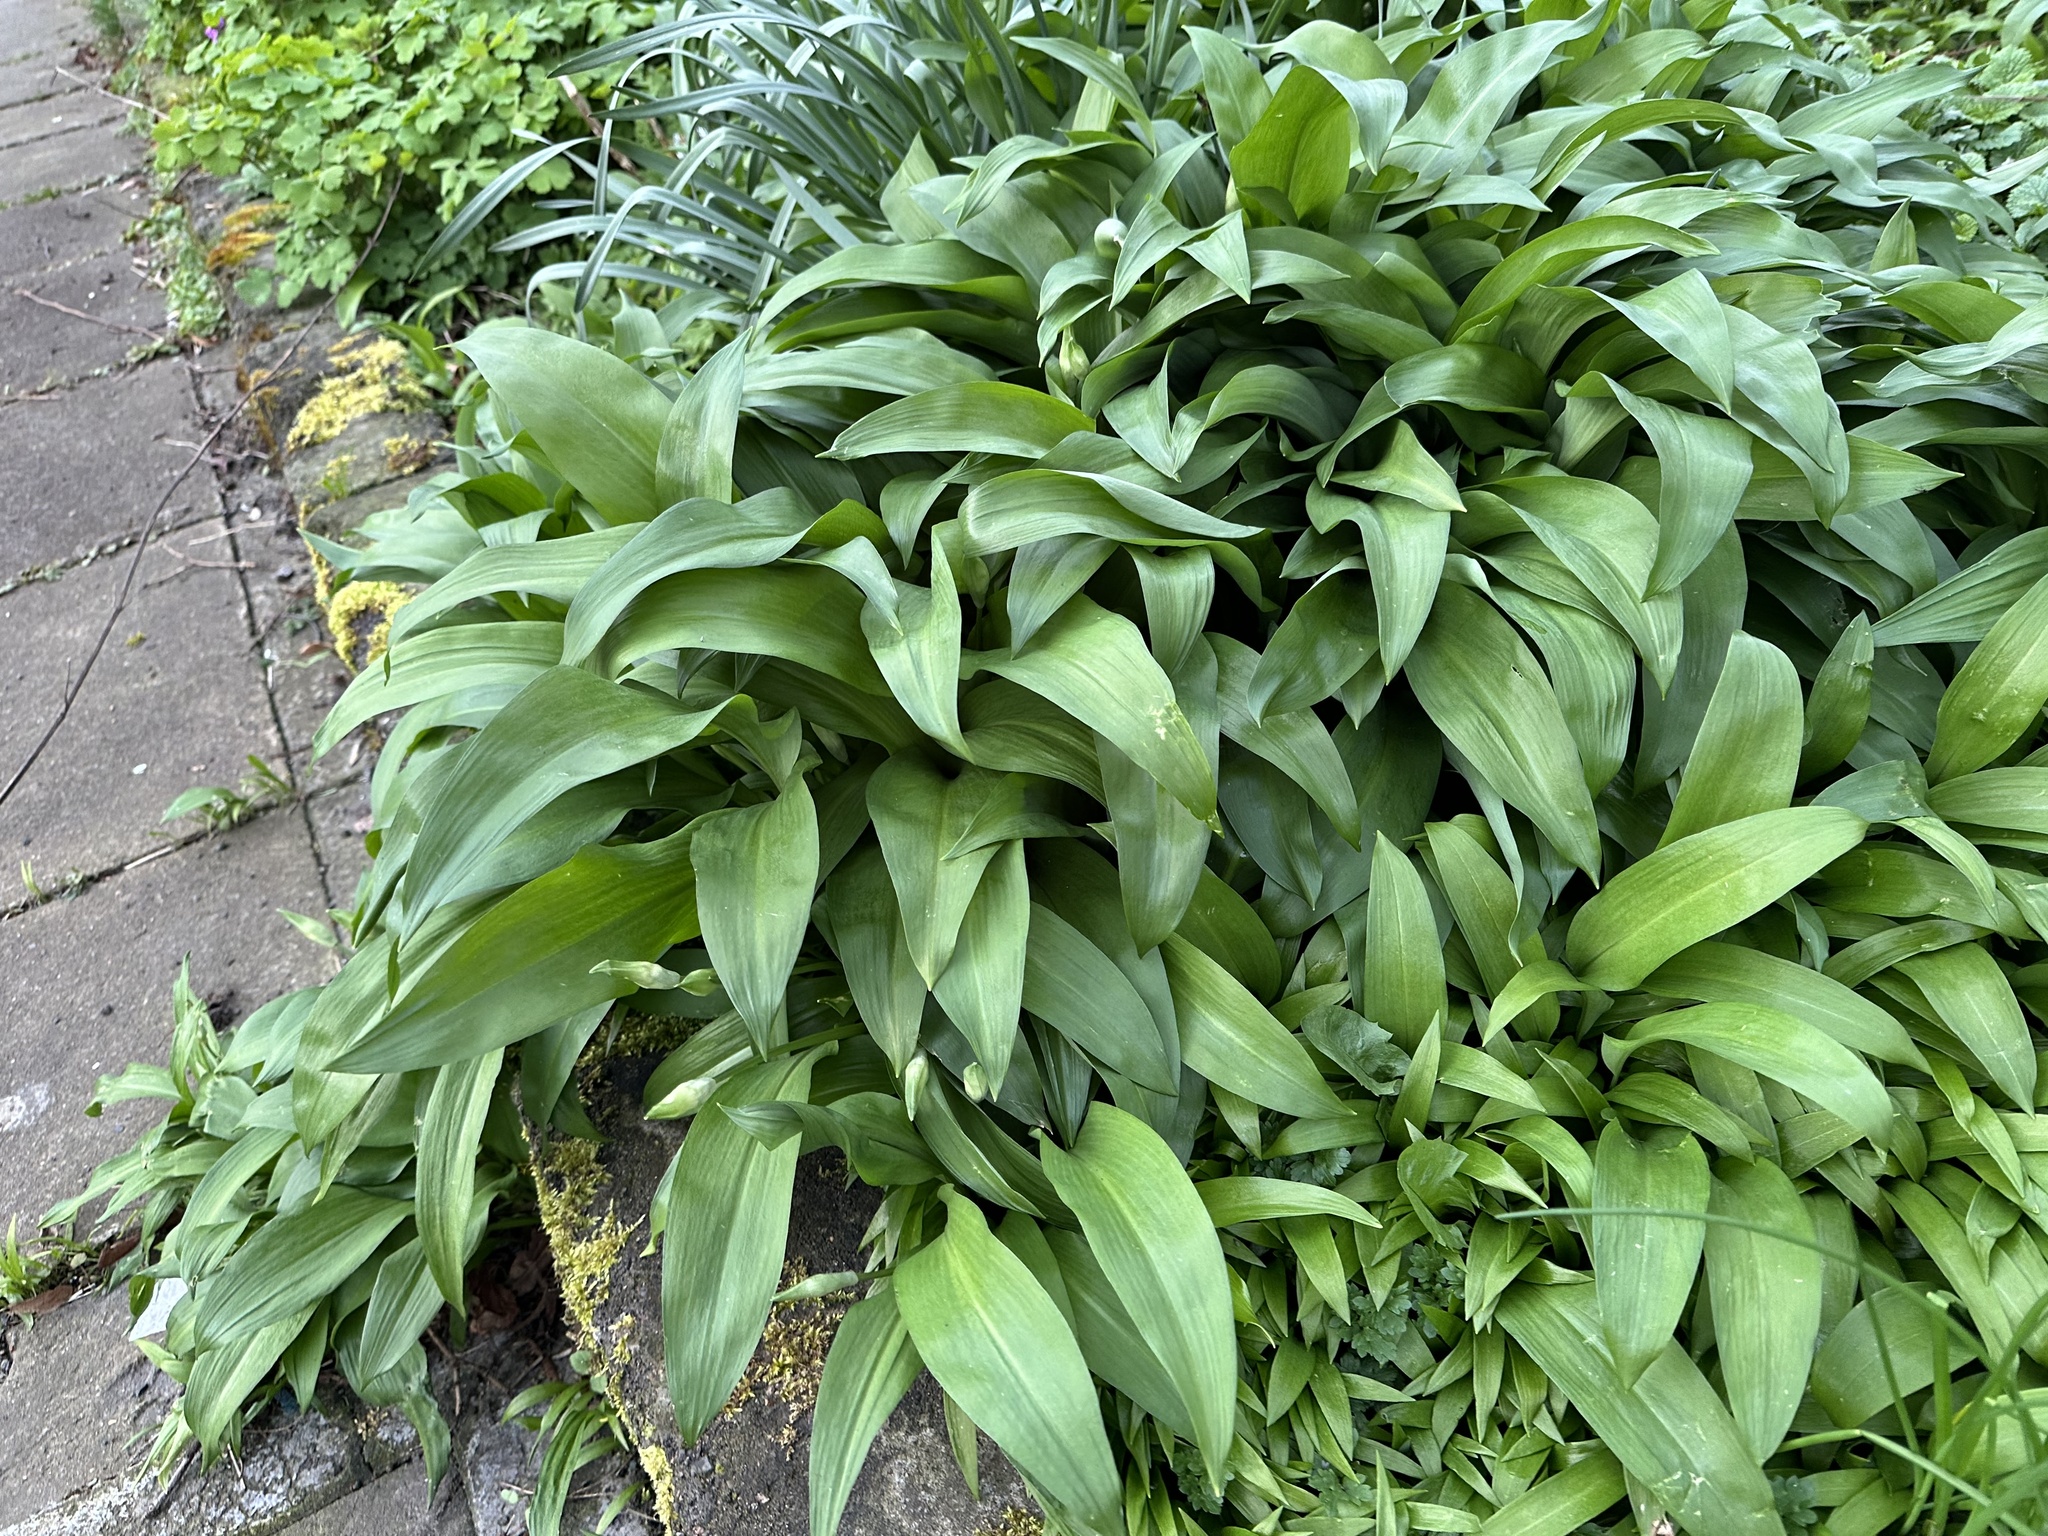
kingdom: Plantae
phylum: Tracheophyta
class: Liliopsida
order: Asparagales
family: Amaryllidaceae
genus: Allium
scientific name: Allium ursinum
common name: Ramsons
